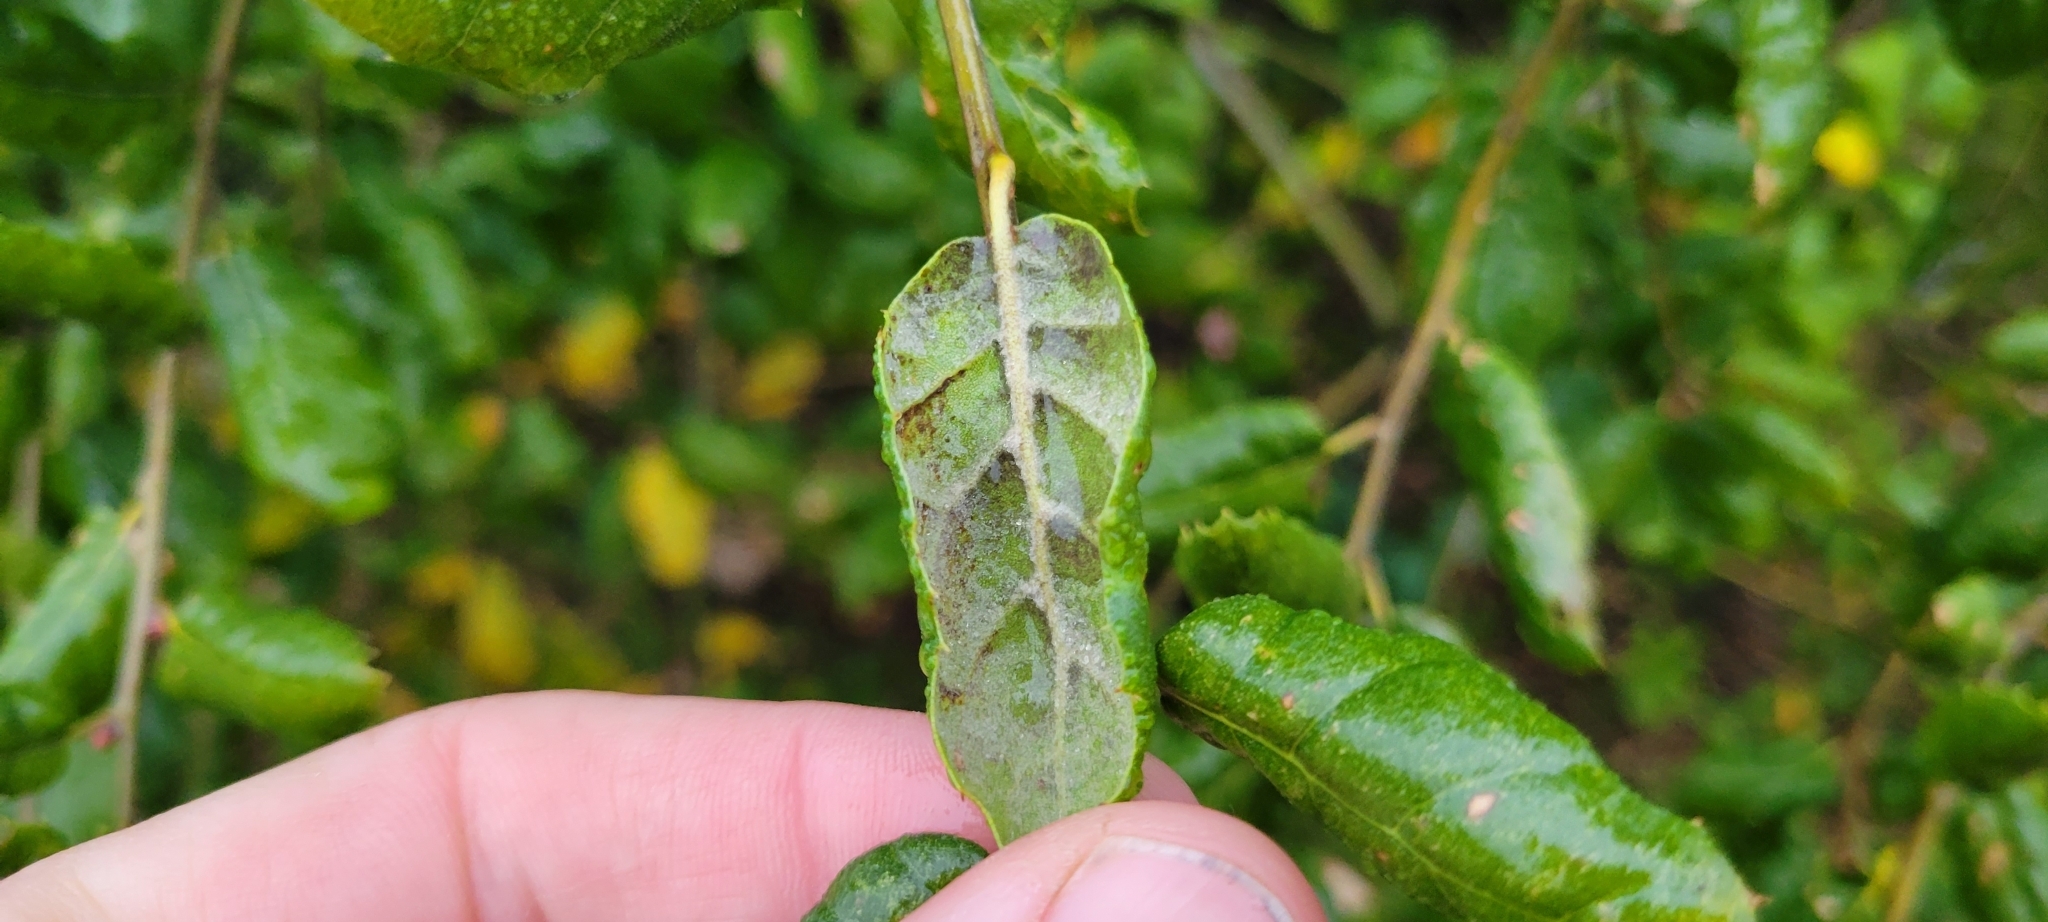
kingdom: Plantae
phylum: Tracheophyta
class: Magnoliopsida
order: Fagales
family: Fagaceae
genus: Quercus
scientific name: Quercus agrifolia
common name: California live oak
